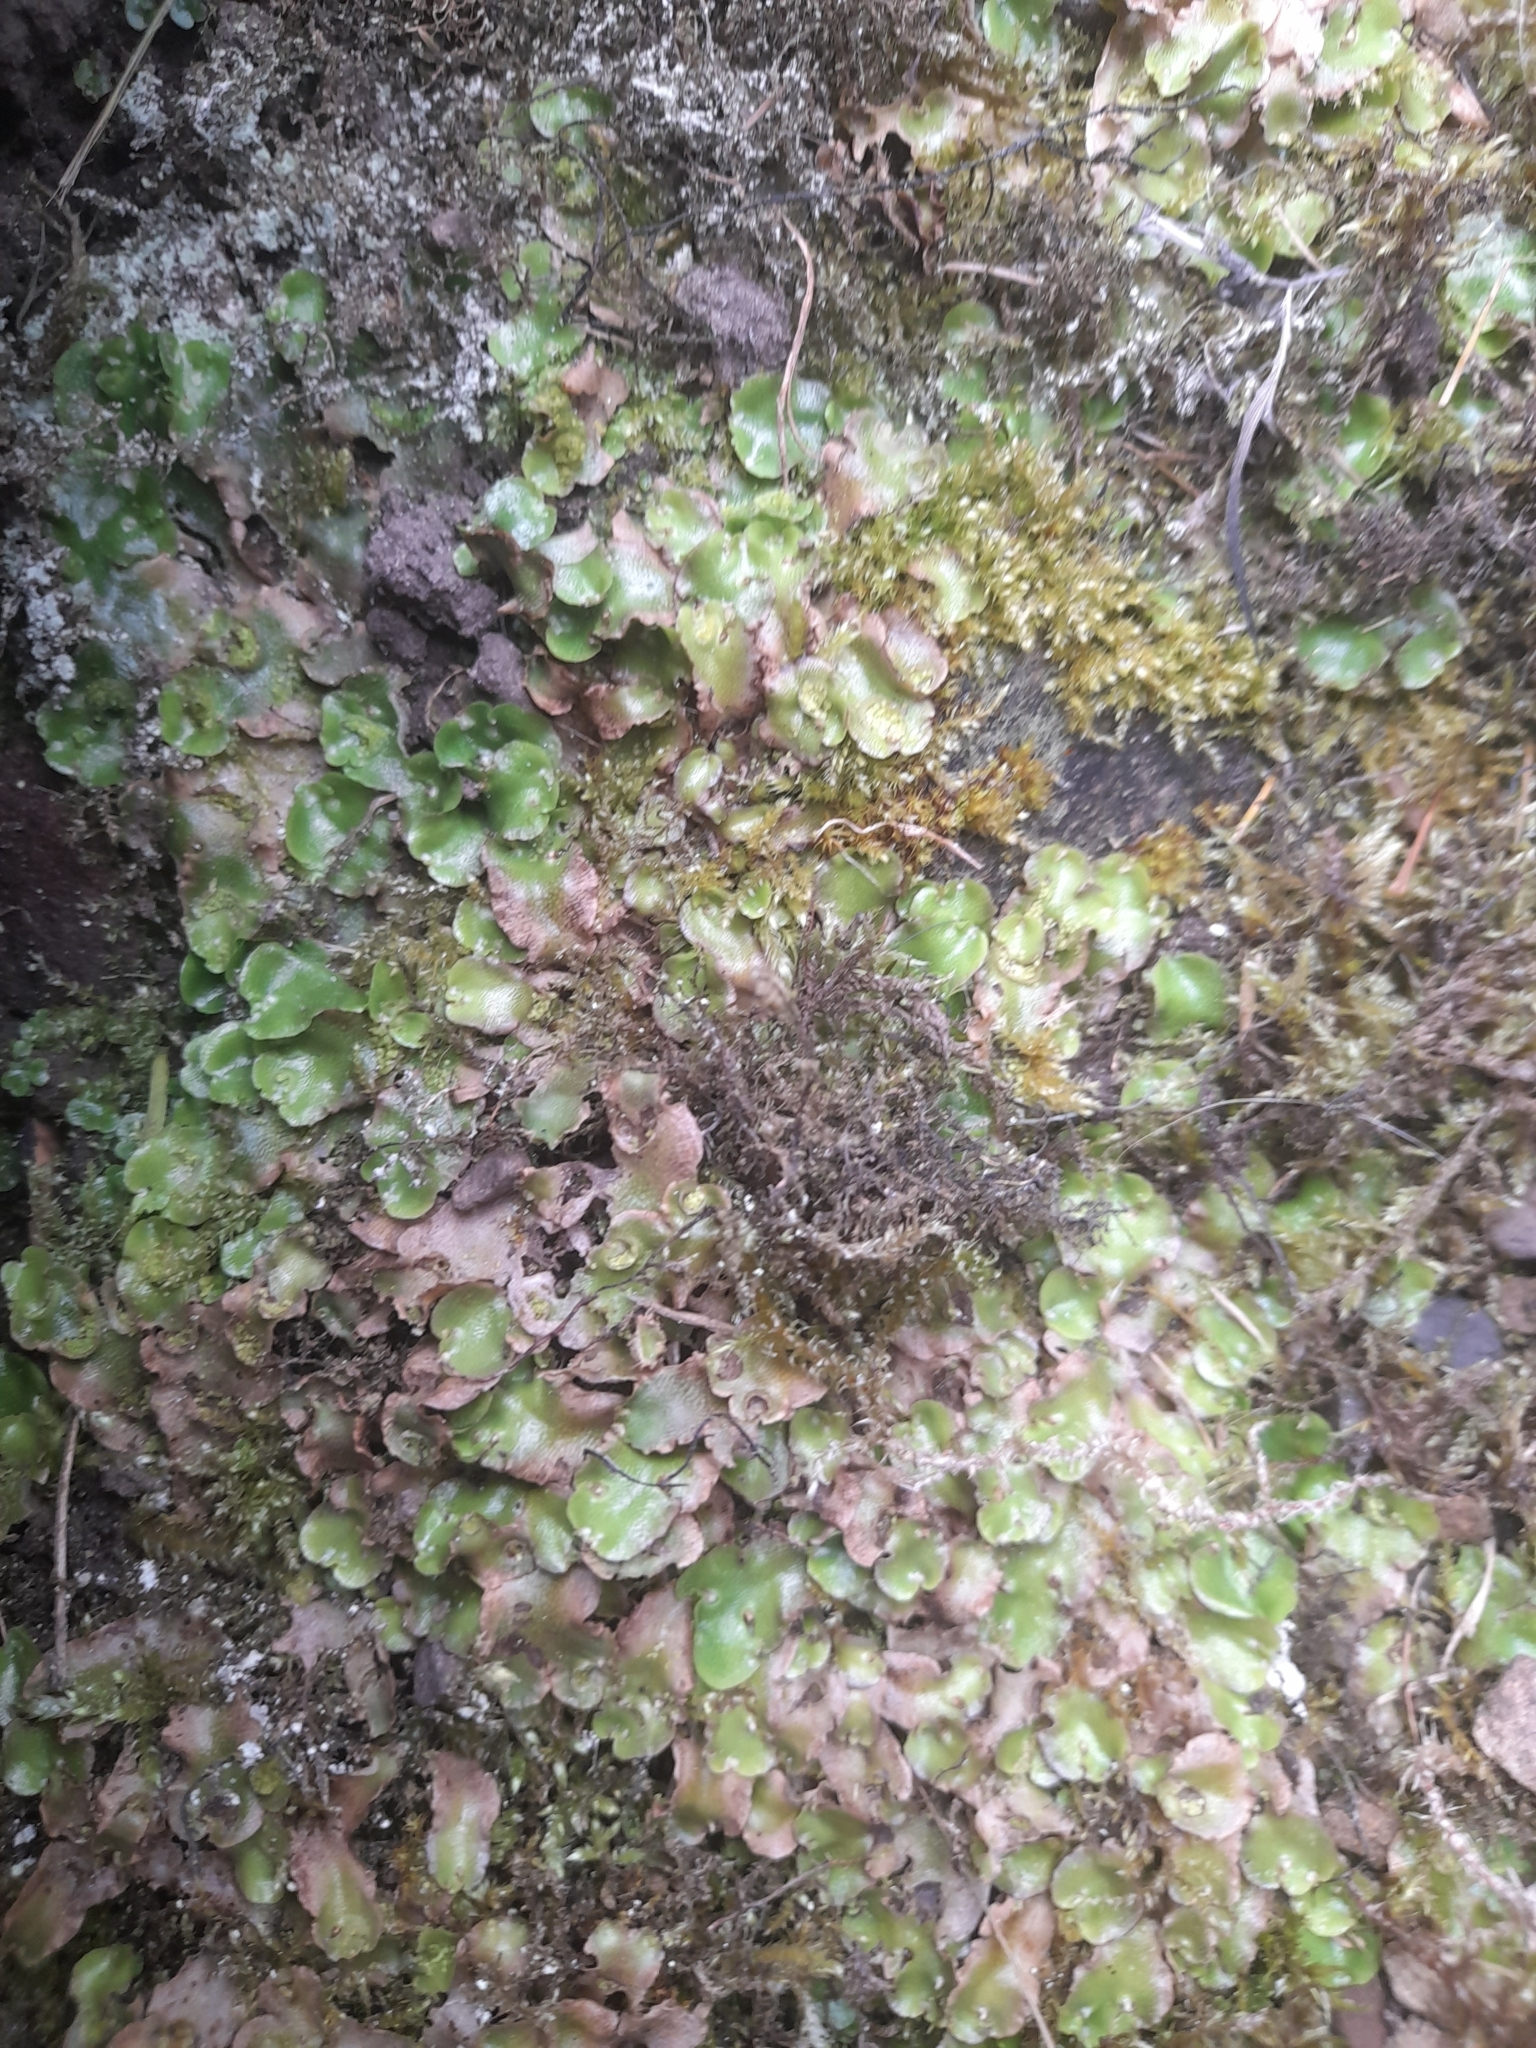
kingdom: Plantae
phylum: Marchantiophyta
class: Marchantiopsida
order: Lunulariales
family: Lunulariaceae
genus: Lunularia
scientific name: Lunularia cruciata
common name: Crescent-cup liverwort
